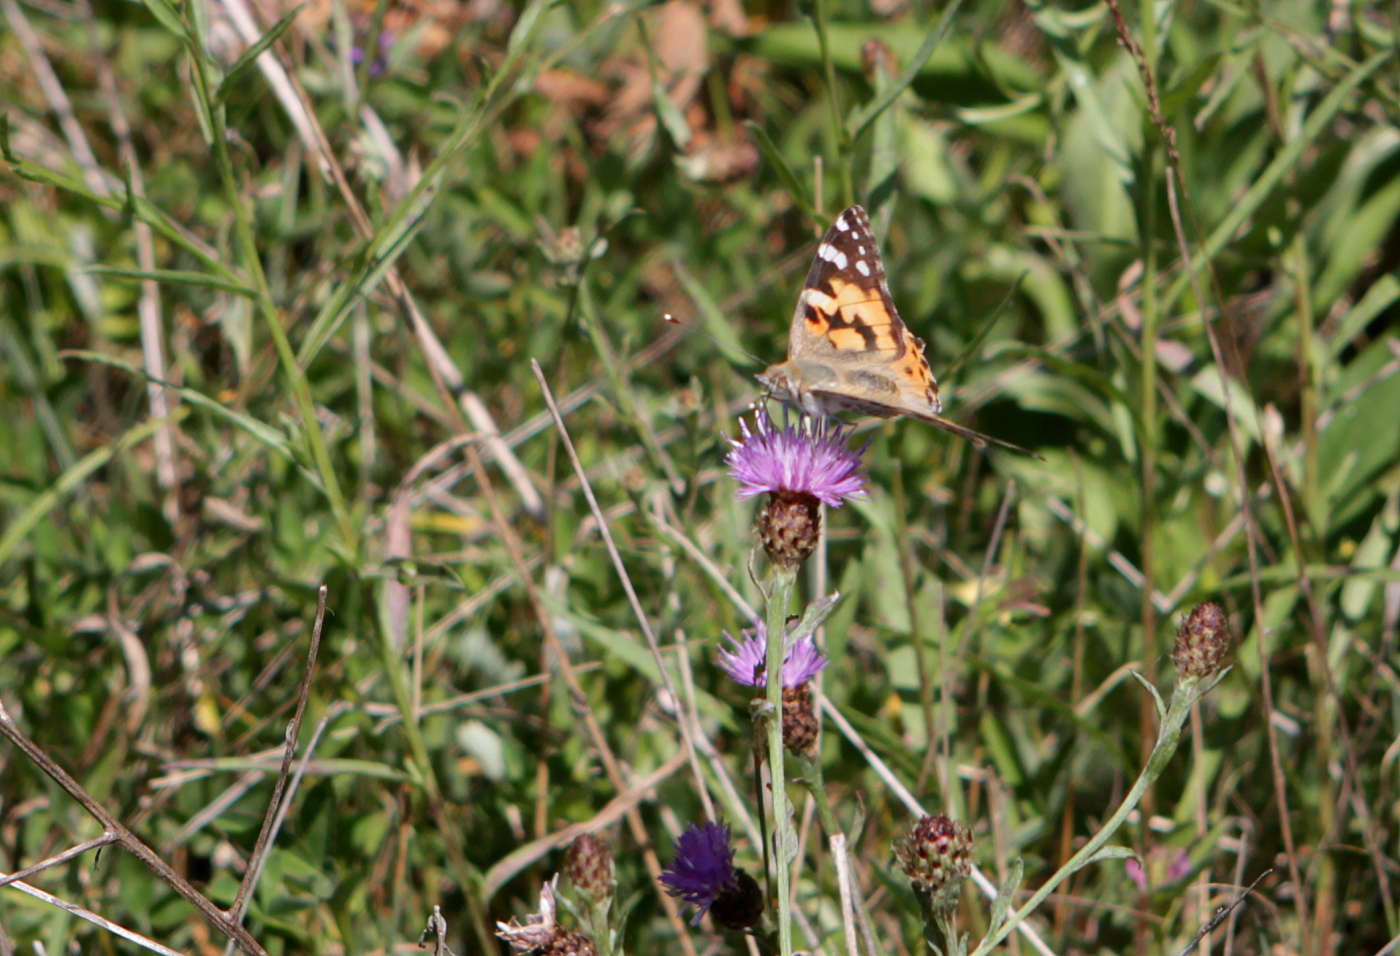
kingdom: Animalia
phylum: Arthropoda
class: Insecta
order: Lepidoptera
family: Nymphalidae
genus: Vanessa
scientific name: Vanessa cardui
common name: Painted lady
